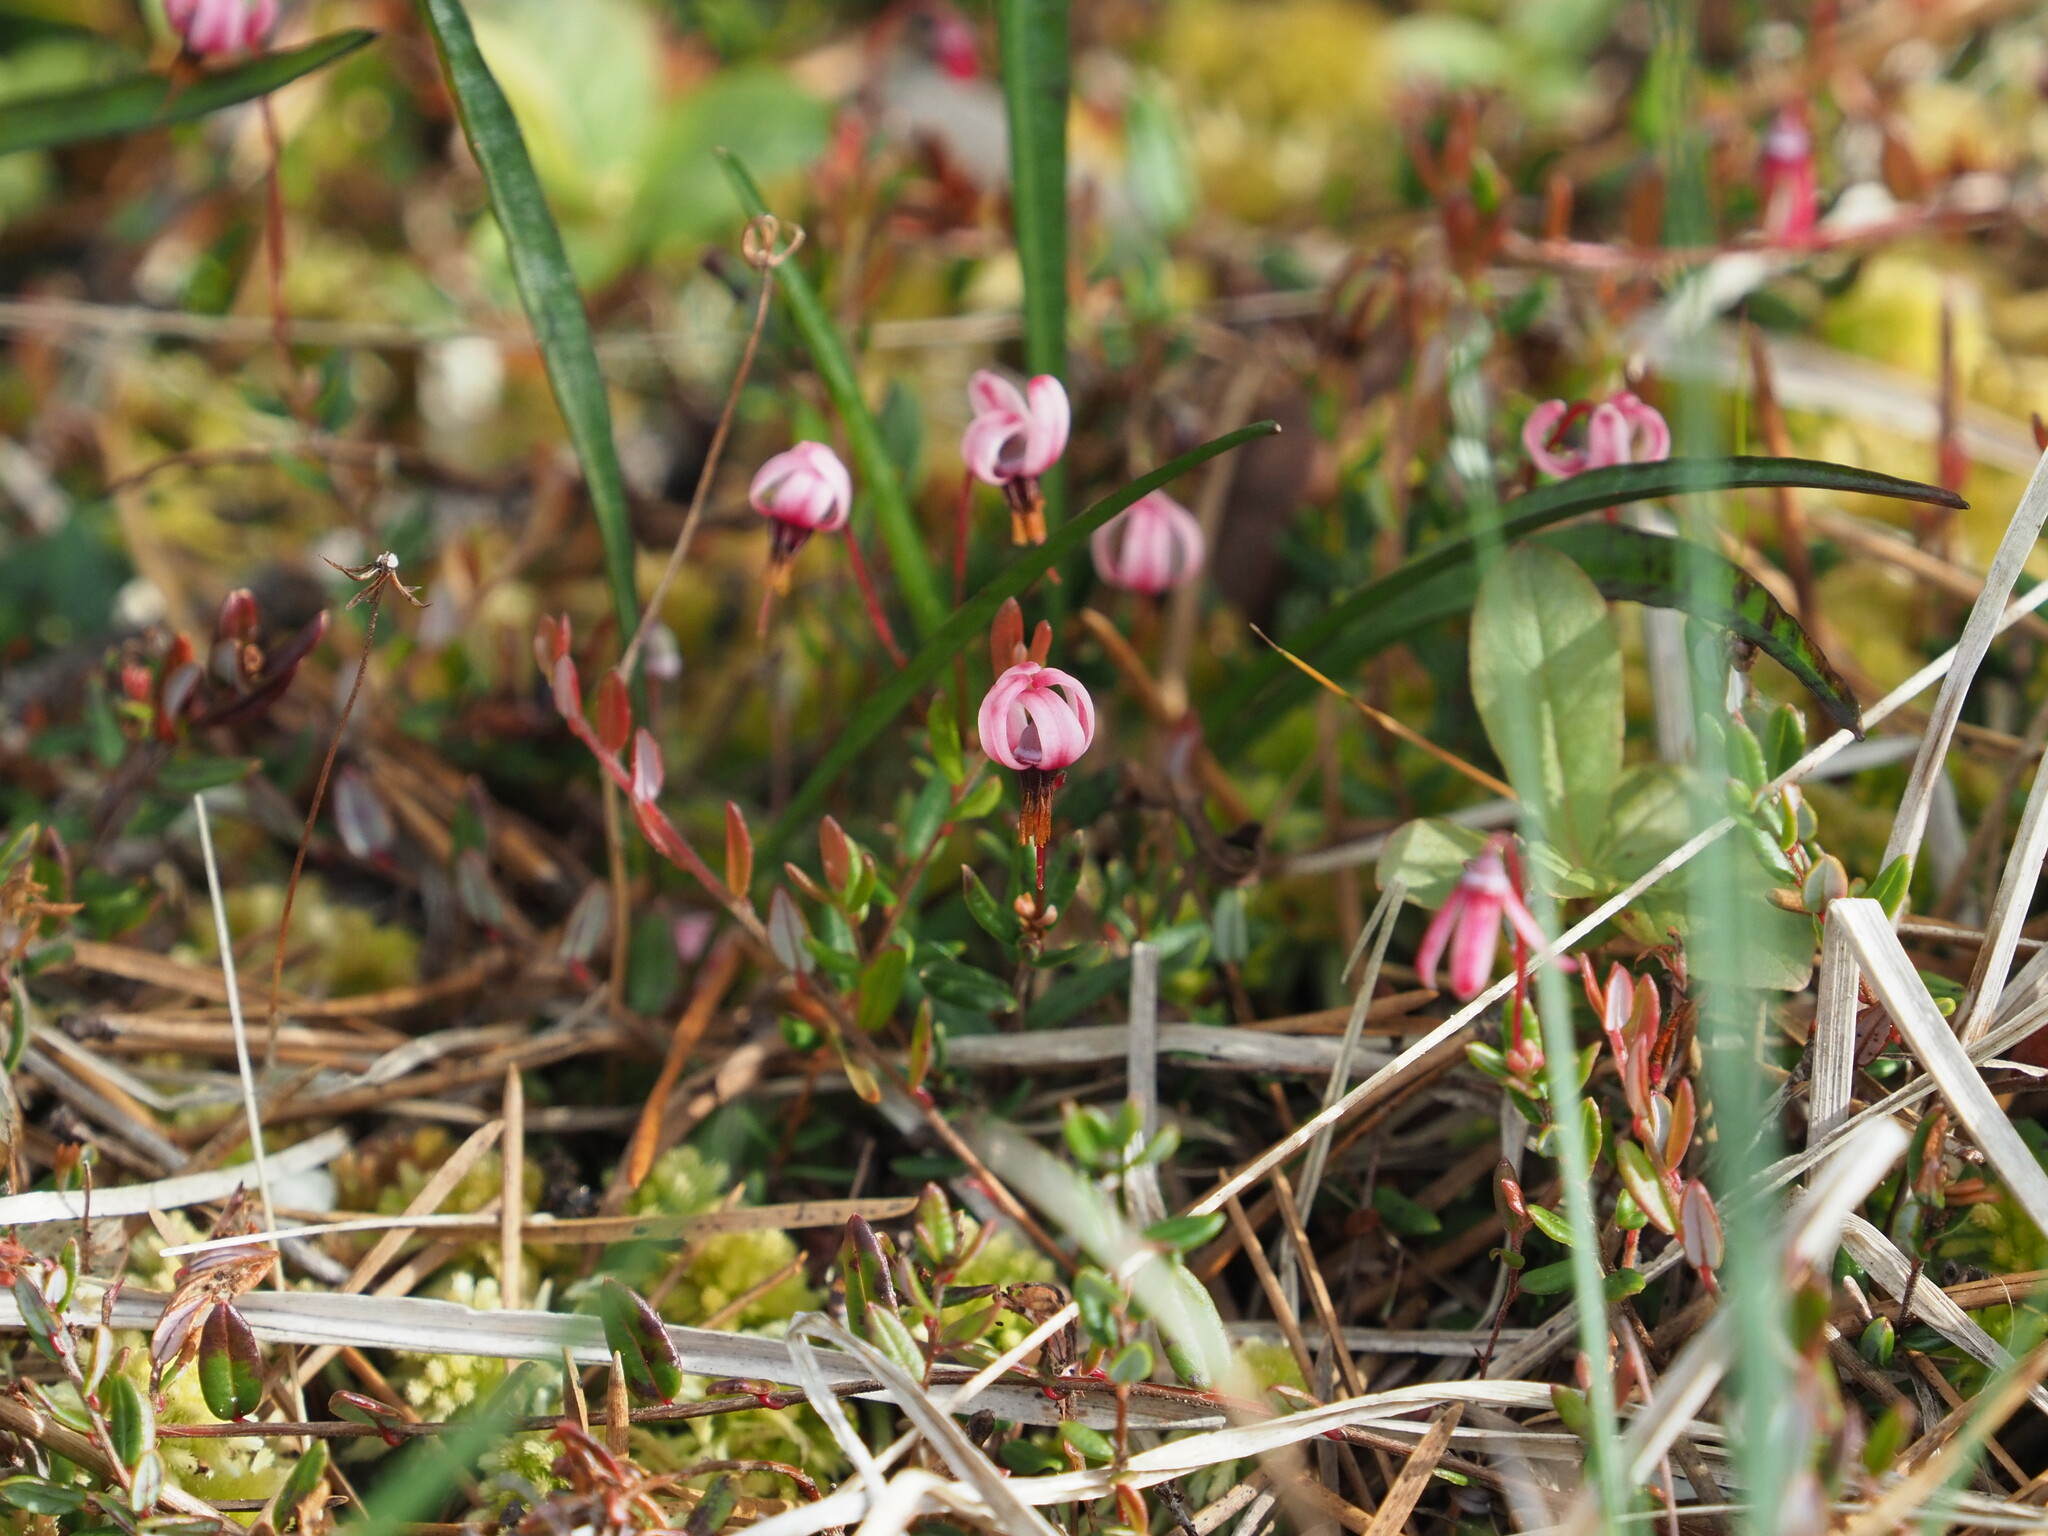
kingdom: Plantae
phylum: Tracheophyta
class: Magnoliopsida
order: Ericales
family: Ericaceae
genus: Vaccinium
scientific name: Vaccinium oxycoccos
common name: Cranberry
